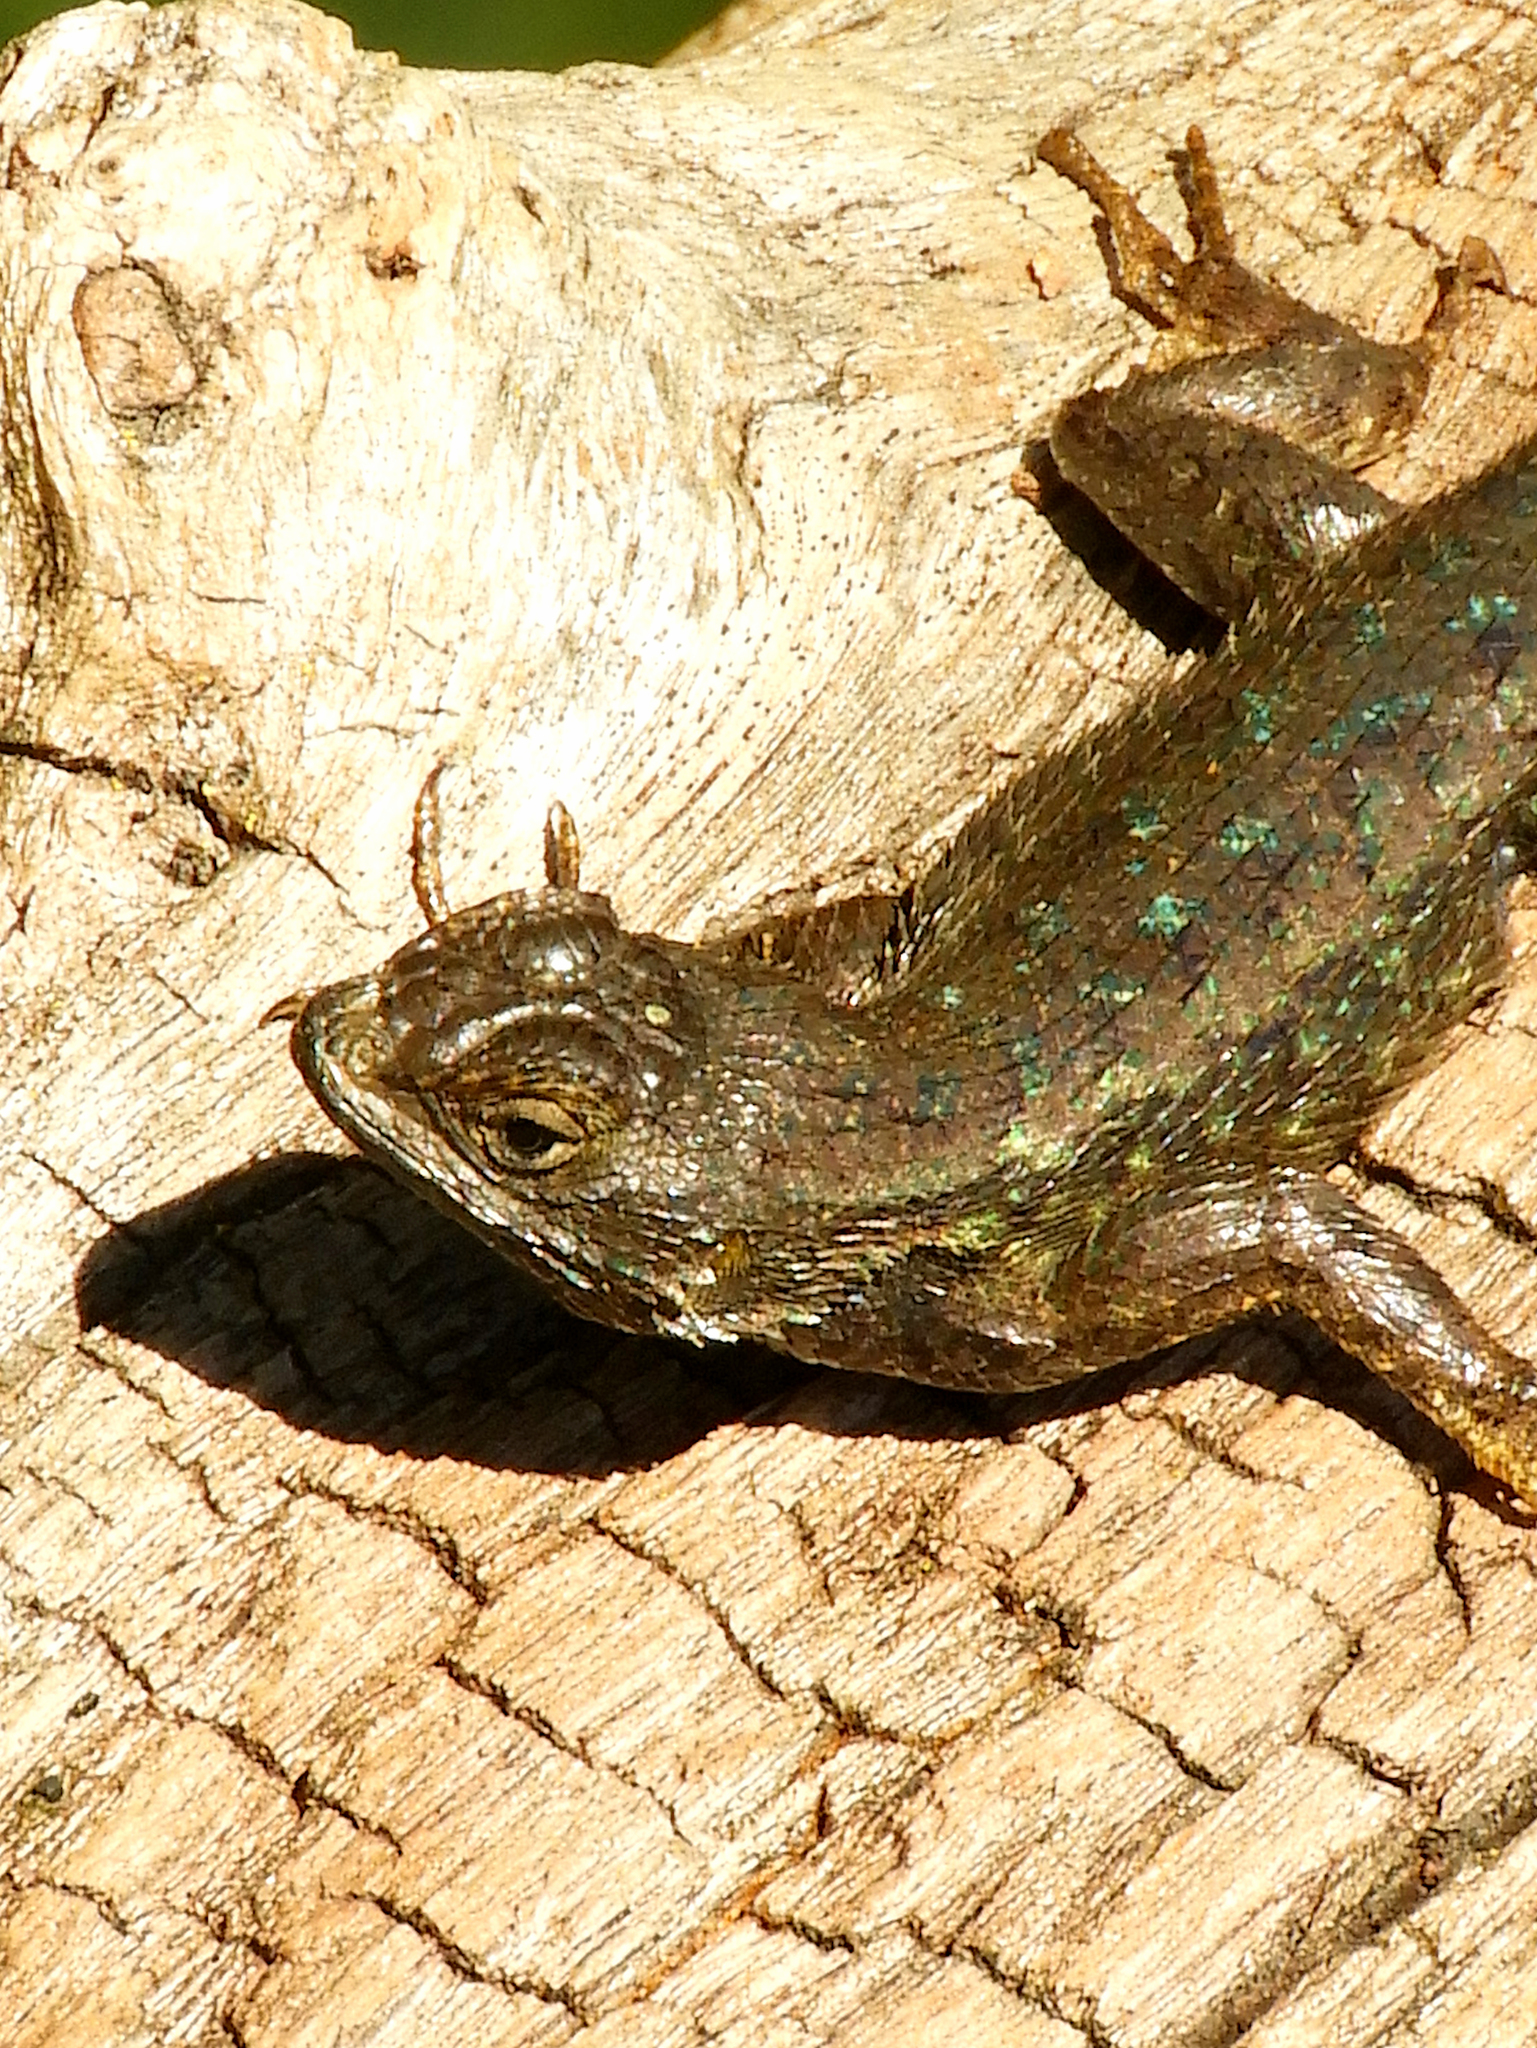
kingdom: Animalia
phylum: Chordata
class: Squamata
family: Phrynosomatidae
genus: Sceloporus
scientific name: Sceloporus occidentalis
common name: Western fence lizard
